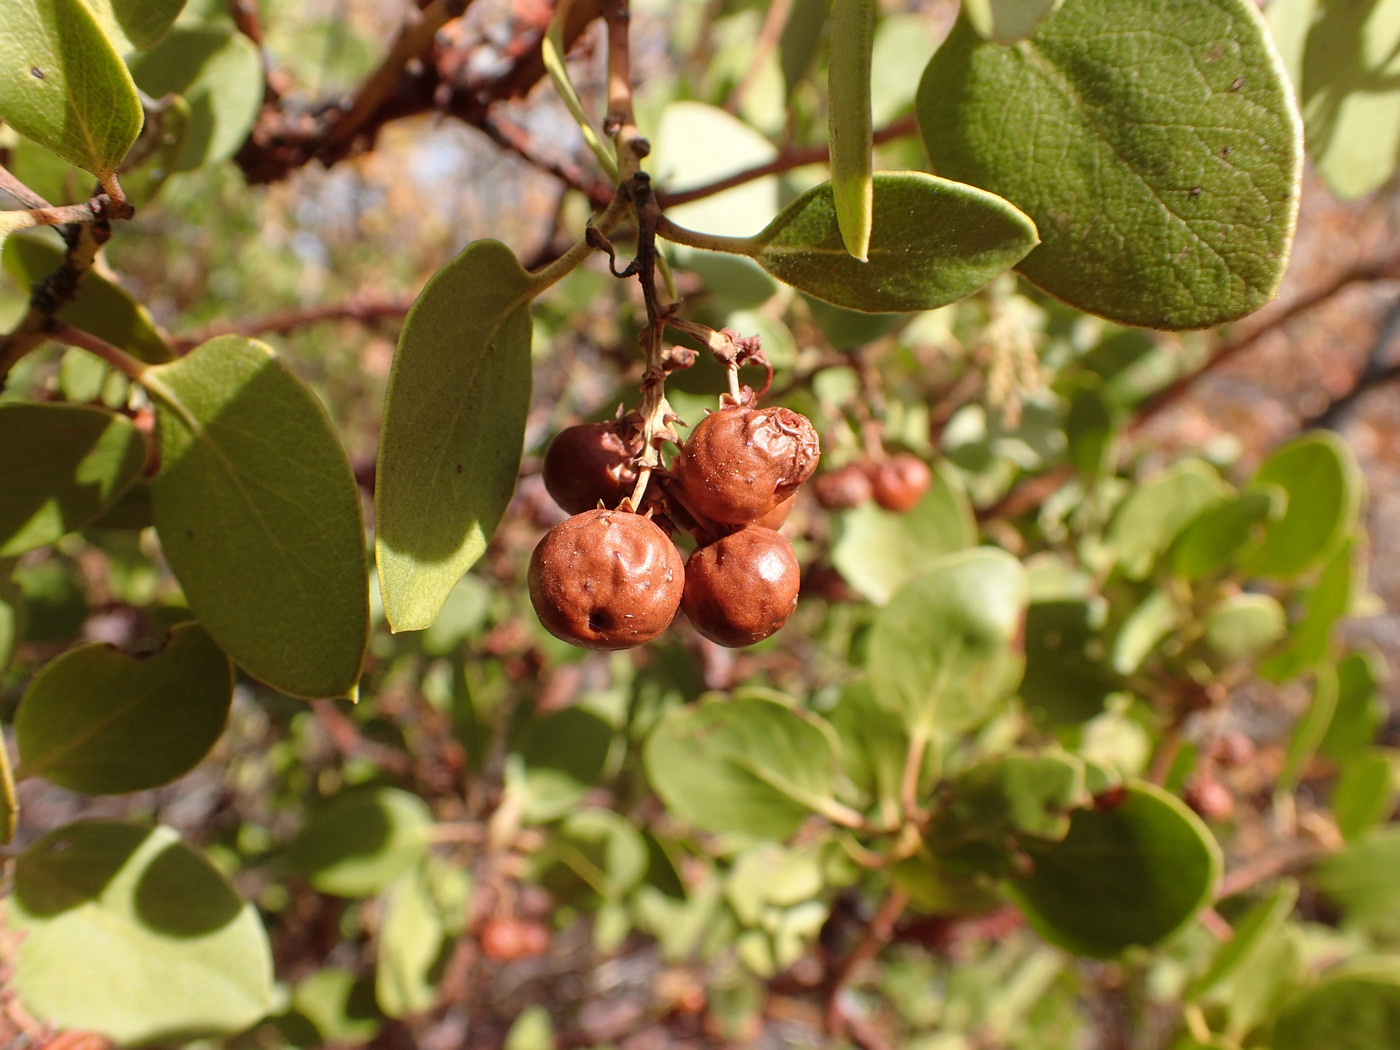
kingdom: Plantae
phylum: Tracheophyta
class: Magnoliopsida
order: Ericales
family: Ericaceae
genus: Arctostaphylos
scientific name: Arctostaphylos patula
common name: Green-leaf manzanita
